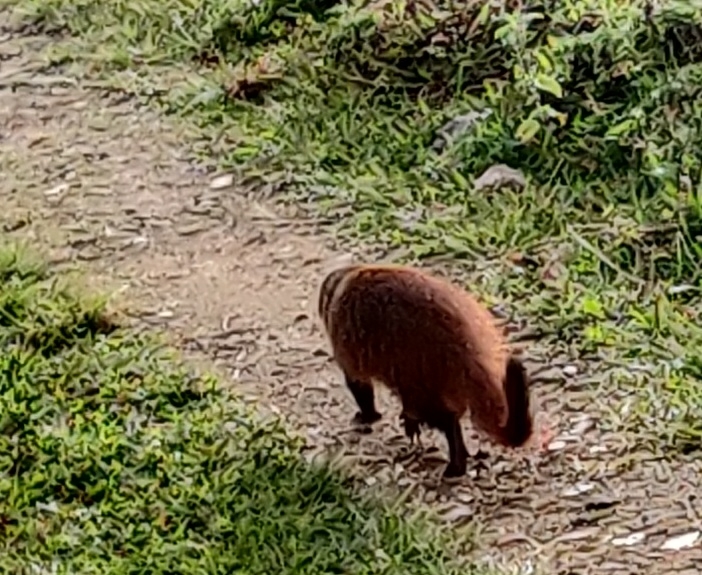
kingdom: Animalia
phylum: Chordata
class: Mammalia
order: Carnivora
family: Herpestidae
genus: Herpestes
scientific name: Herpestes vitticollis
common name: Stripe-necked mongoose
